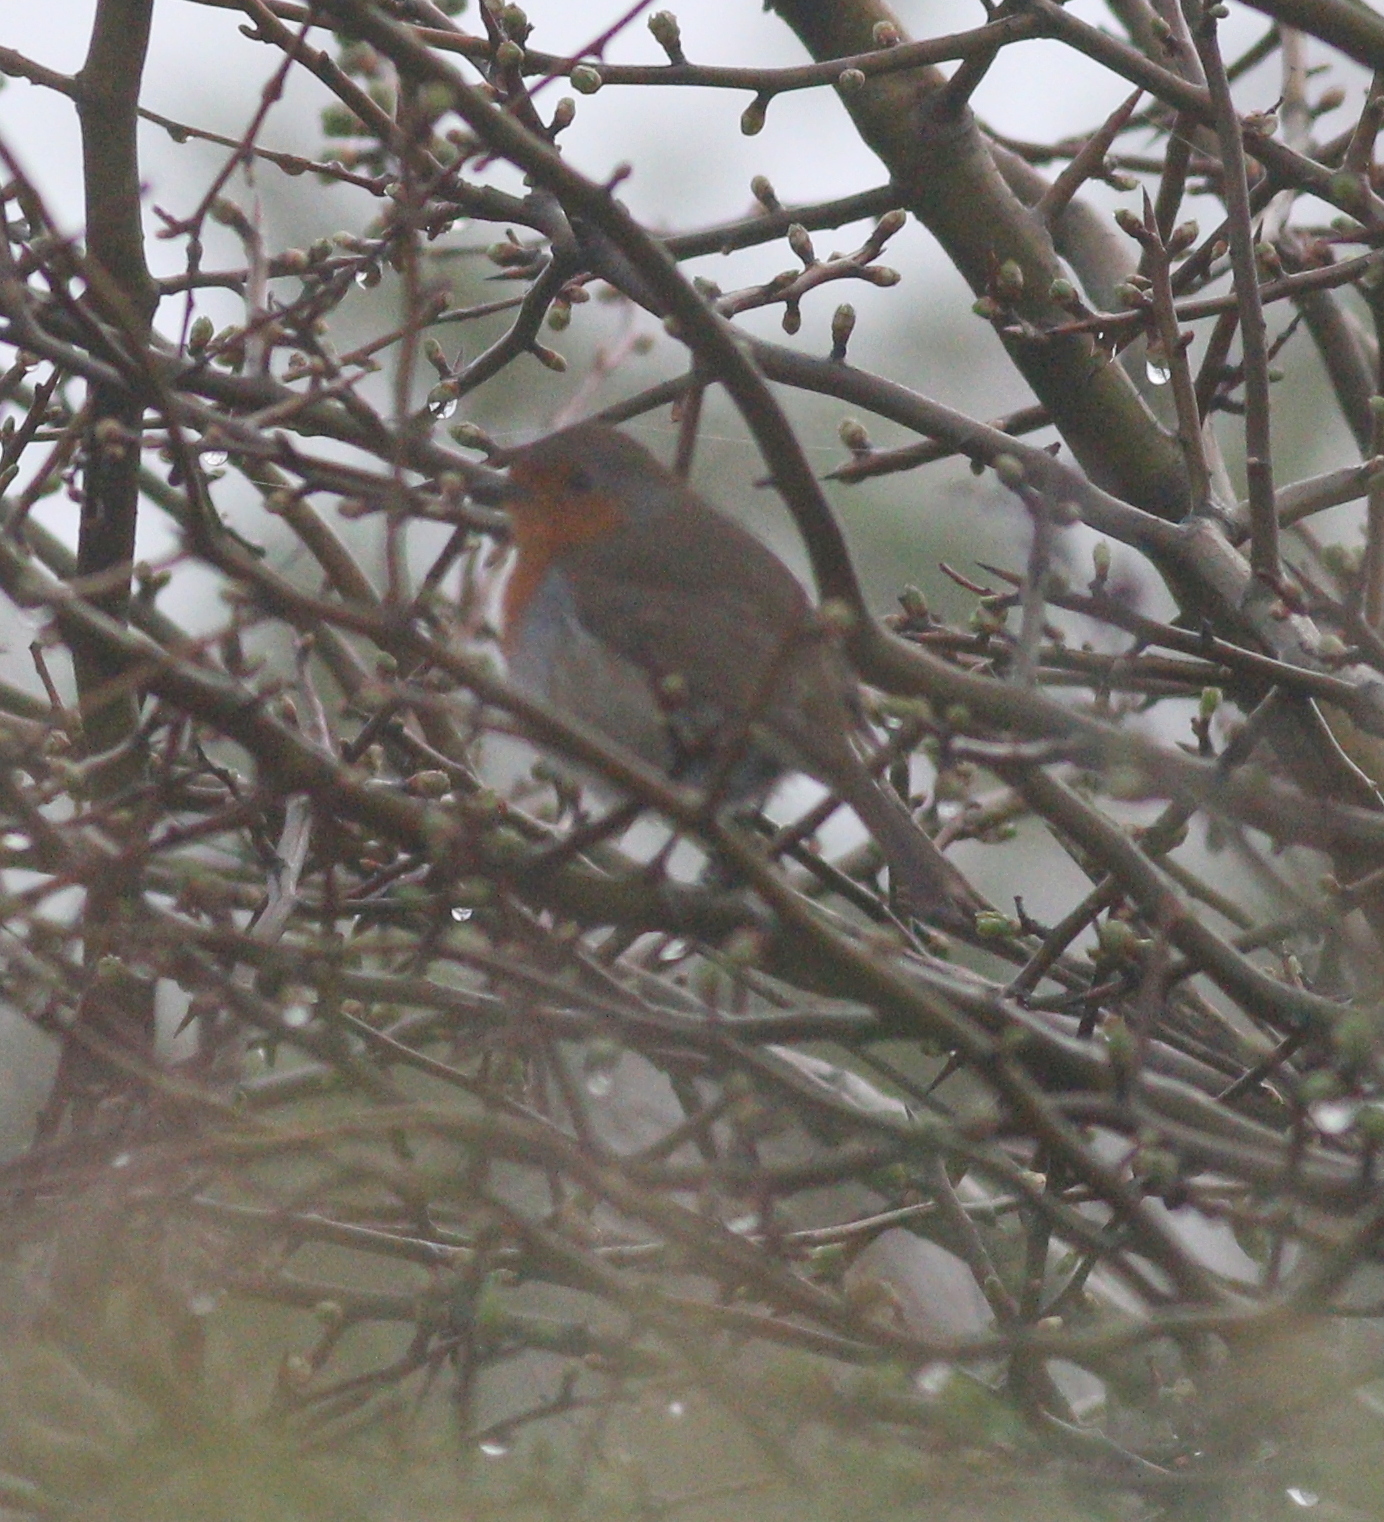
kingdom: Animalia
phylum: Chordata
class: Aves
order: Passeriformes
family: Muscicapidae
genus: Erithacus
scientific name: Erithacus rubecula
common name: European robin
